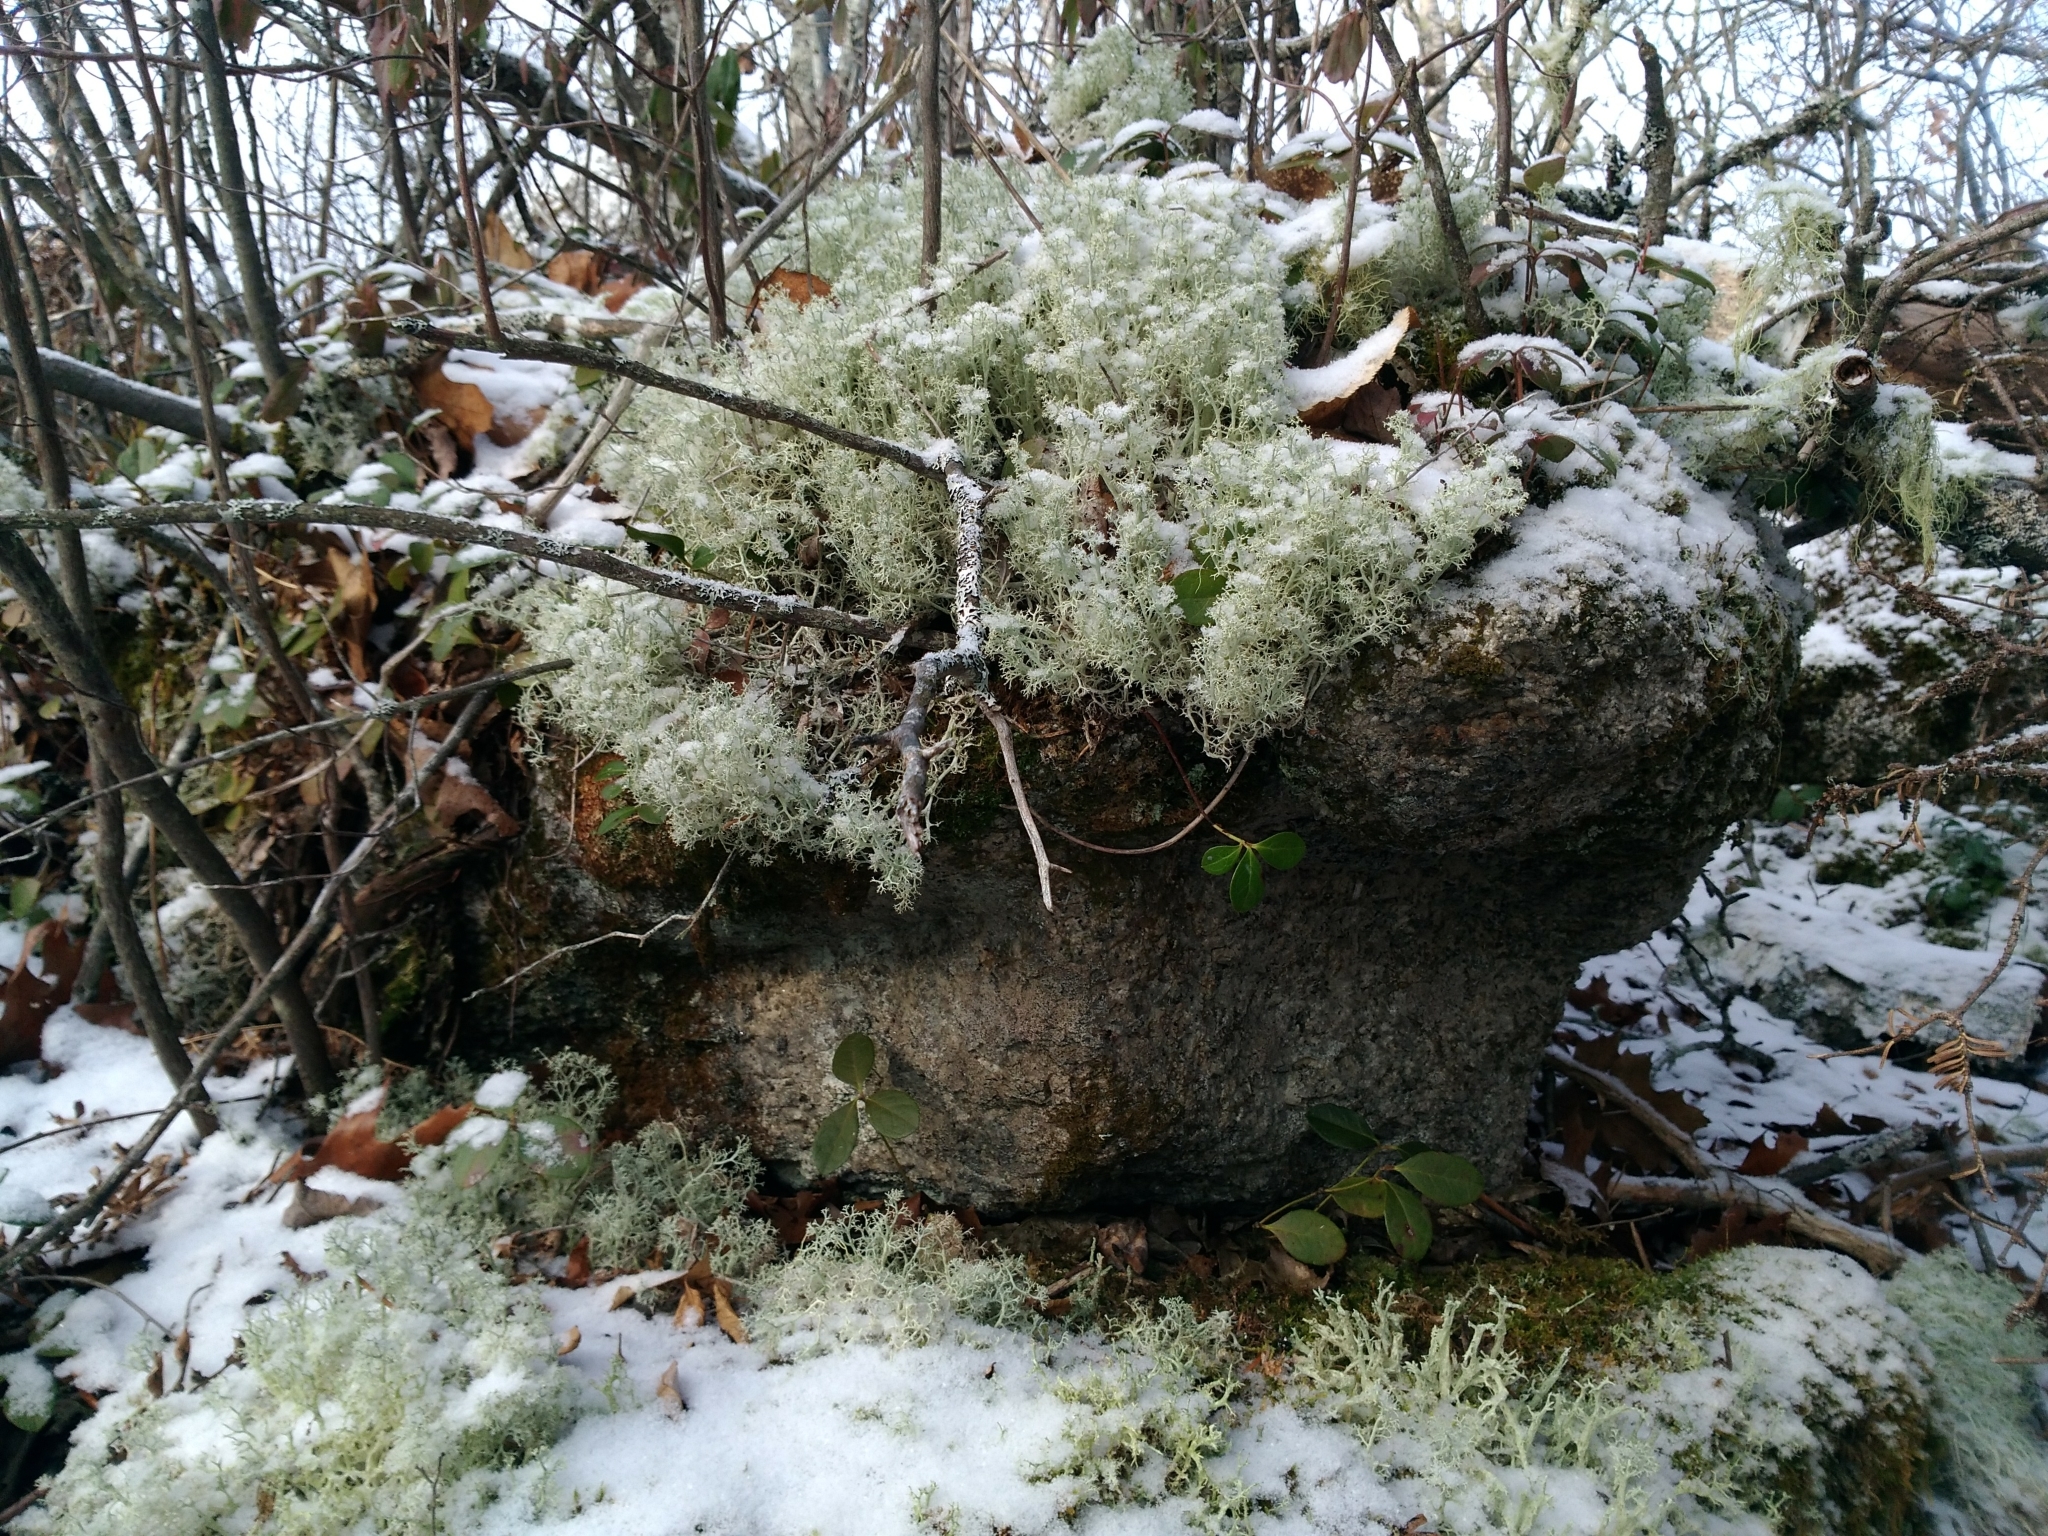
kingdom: Fungi
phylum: Ascomycota
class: Lecanoromycetes
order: Lecanorales
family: Cladoniaceae
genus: Cladonia
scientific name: Cladonia arbuscula
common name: Reindeer lichen
